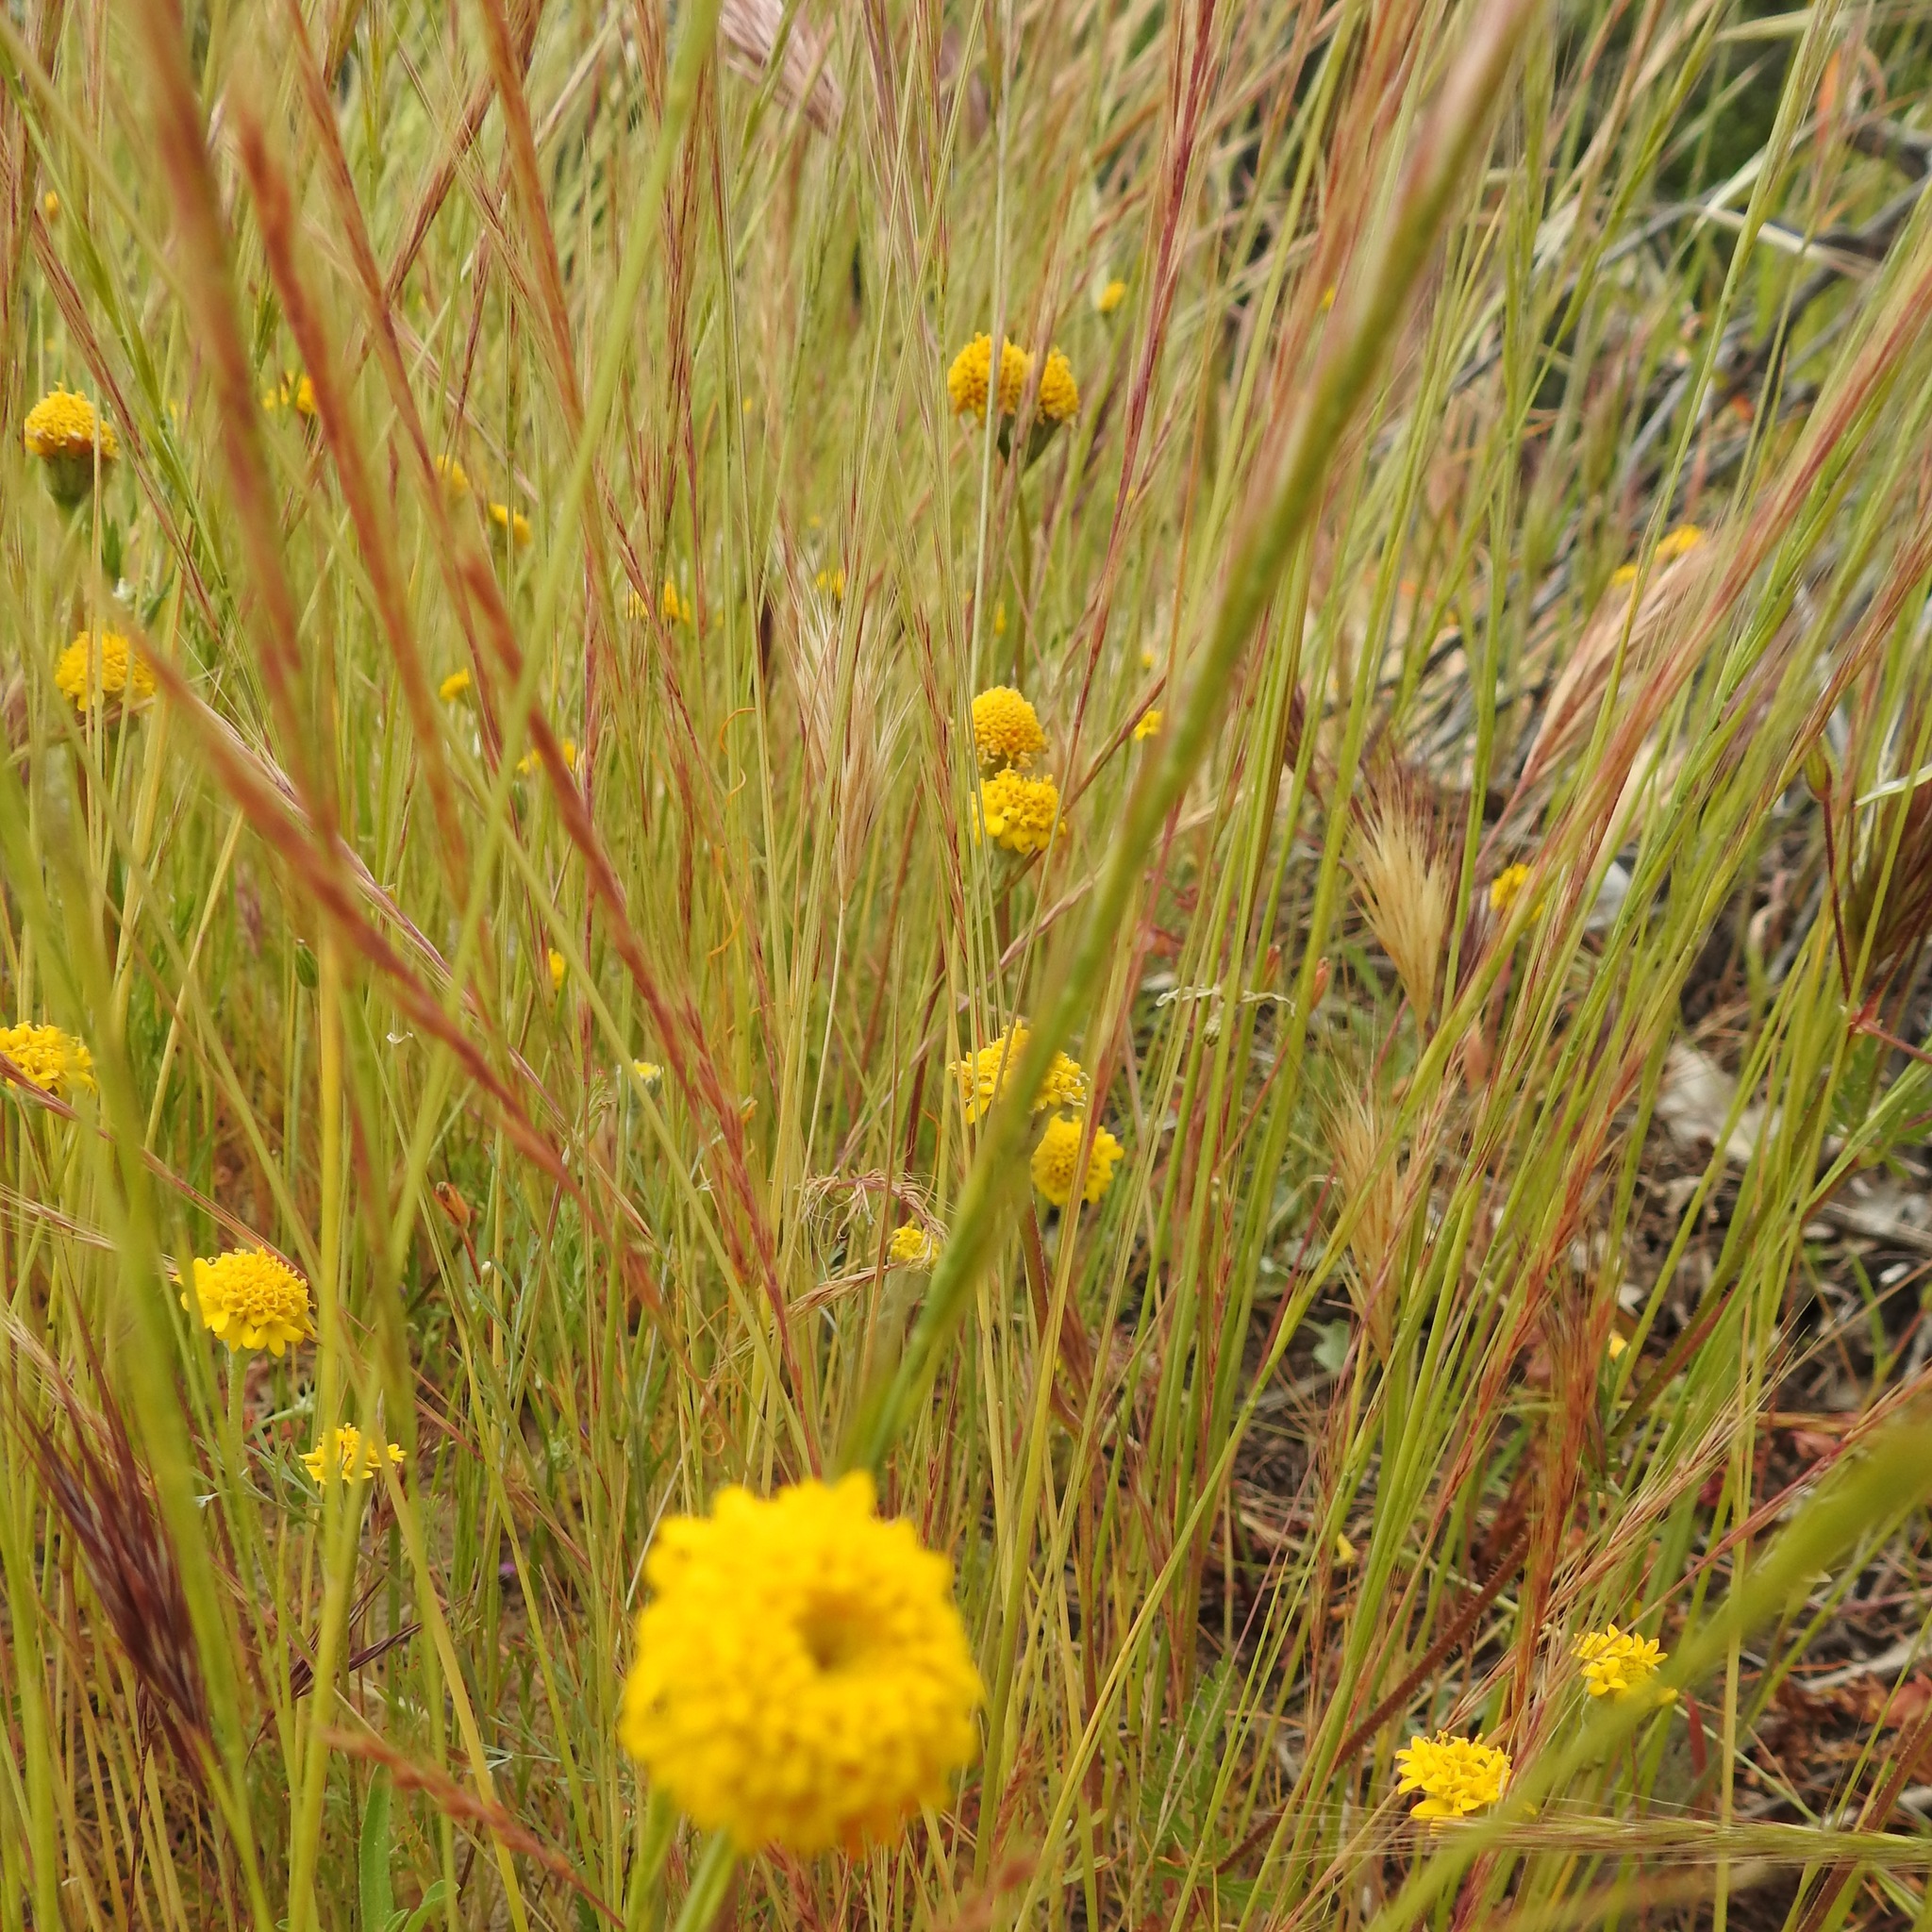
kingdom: Plantae
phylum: Tracheophyta
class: Magnoliopsida
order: Asterales
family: Asteraceae
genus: Chaenactis
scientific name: Chaenactis glabriuscula
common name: Yellow pincushion
